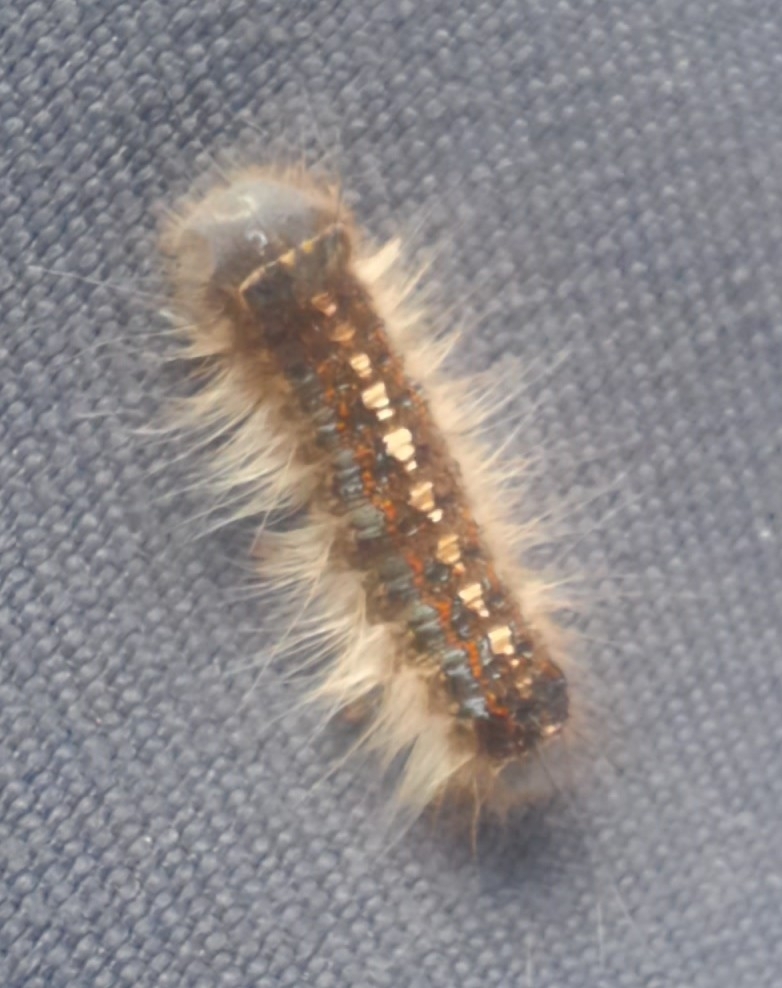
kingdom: Animalia
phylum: Arthropoda
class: Insecta
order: Lepidoptera
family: Lasiocampidae
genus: Malacosoma
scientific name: Malacosoma disstria
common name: Forest tent caterpillar
